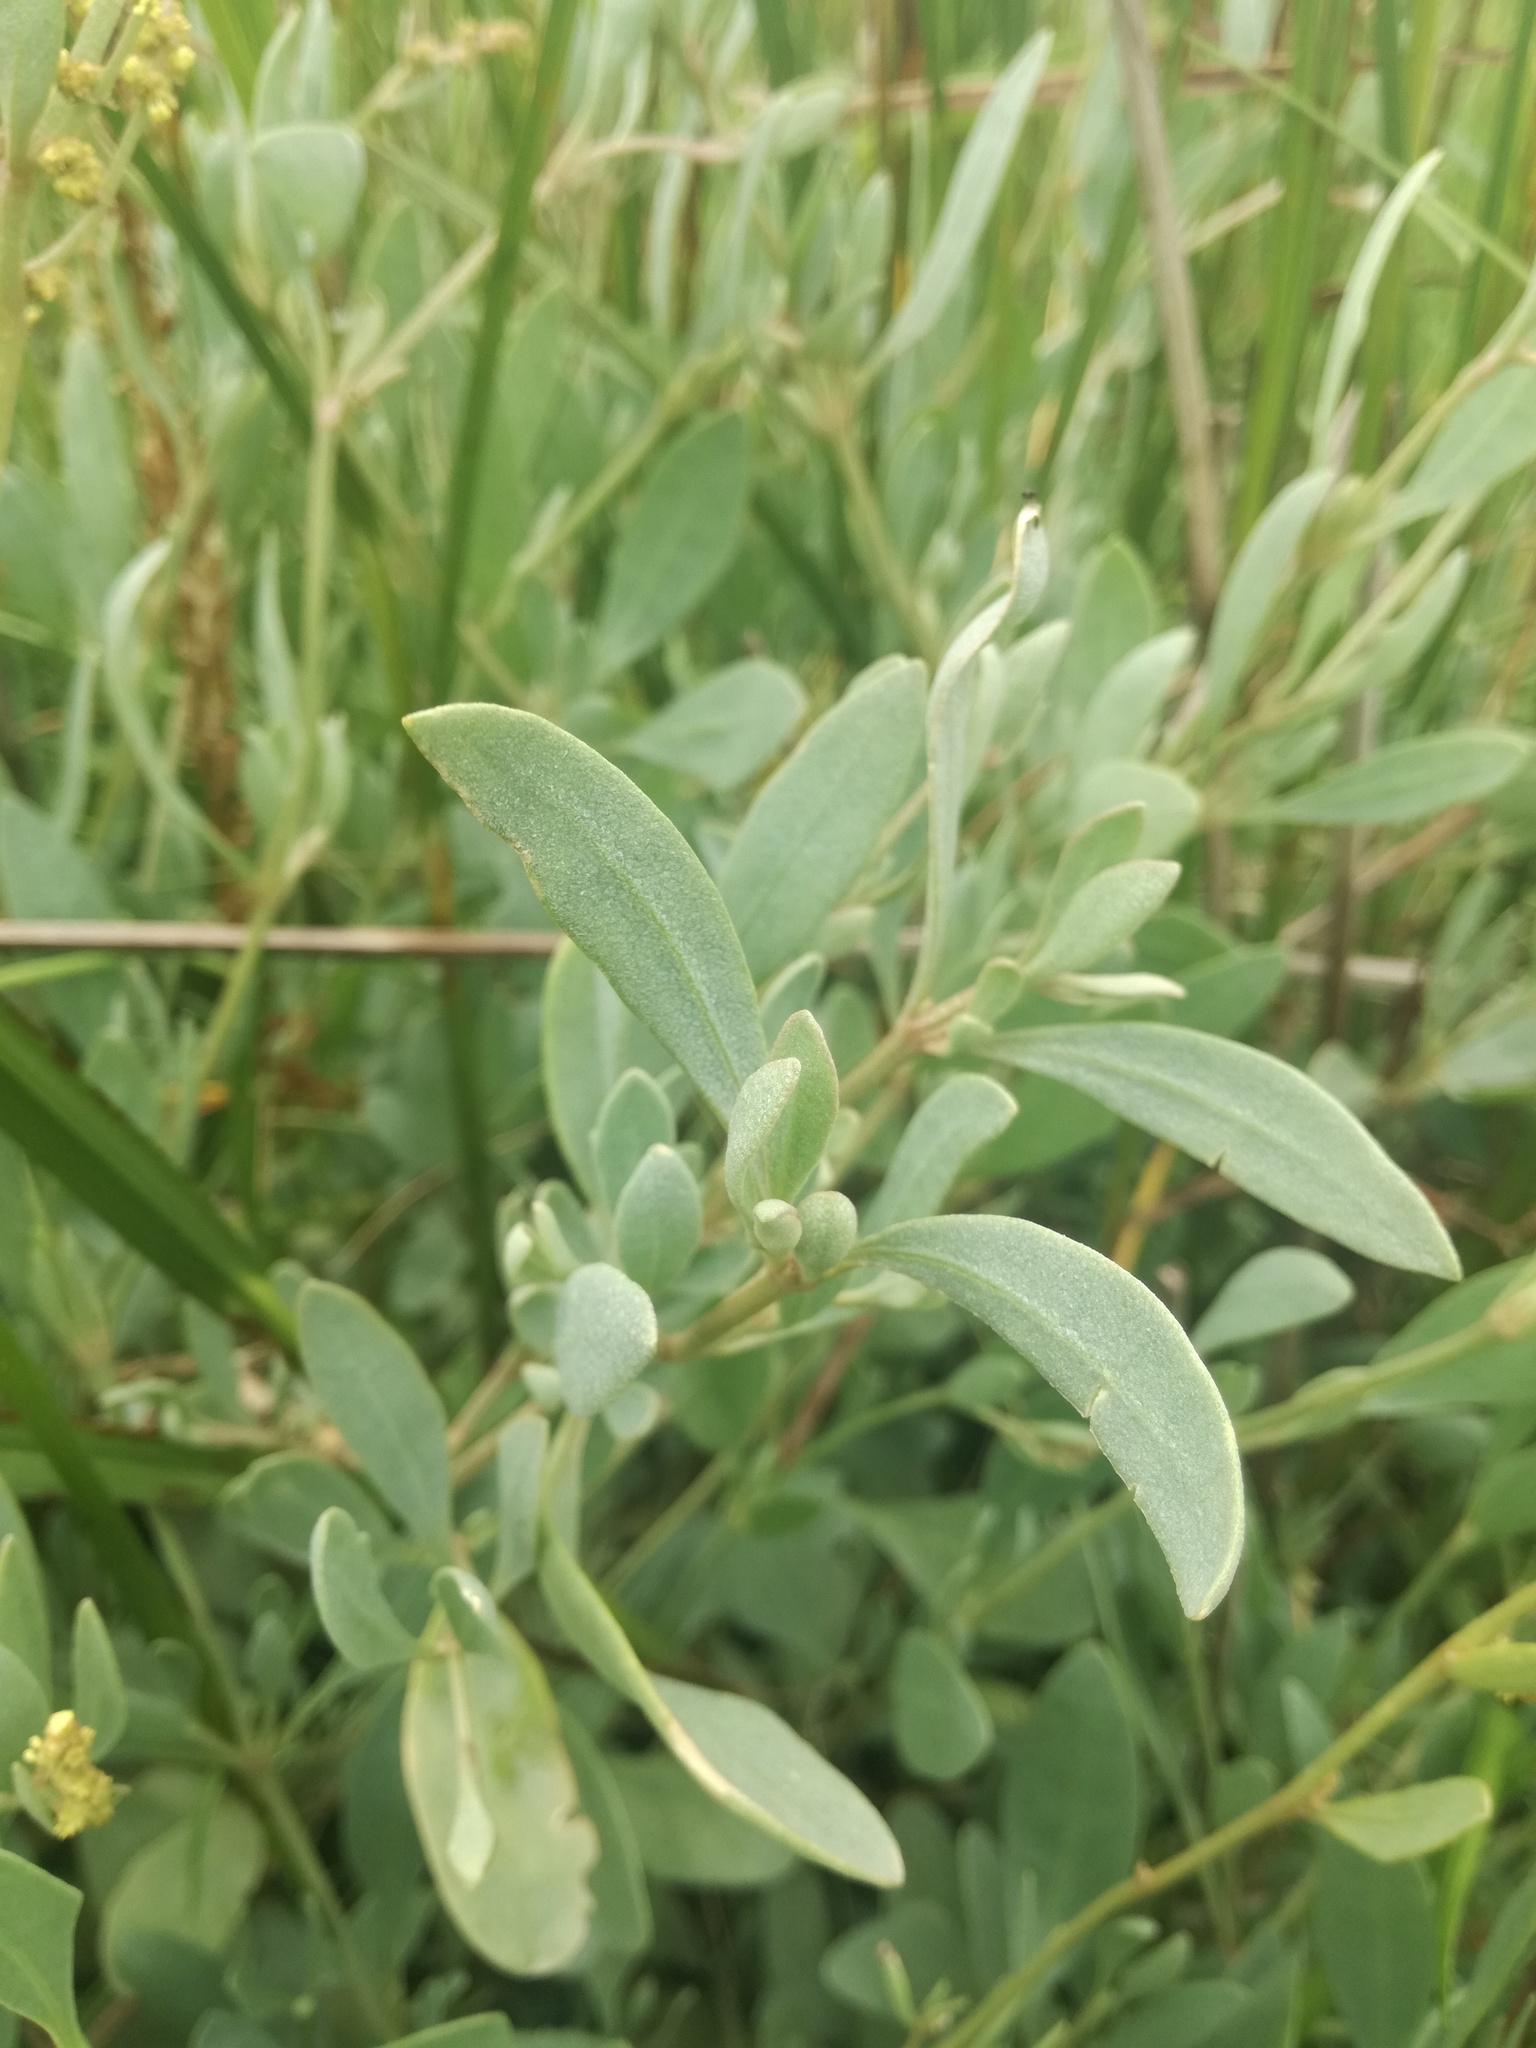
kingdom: Plantae
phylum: Tracheophyta
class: Magnoliopsida
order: Caryophyllales
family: Amaranthaceae
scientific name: Amaranthaceae
